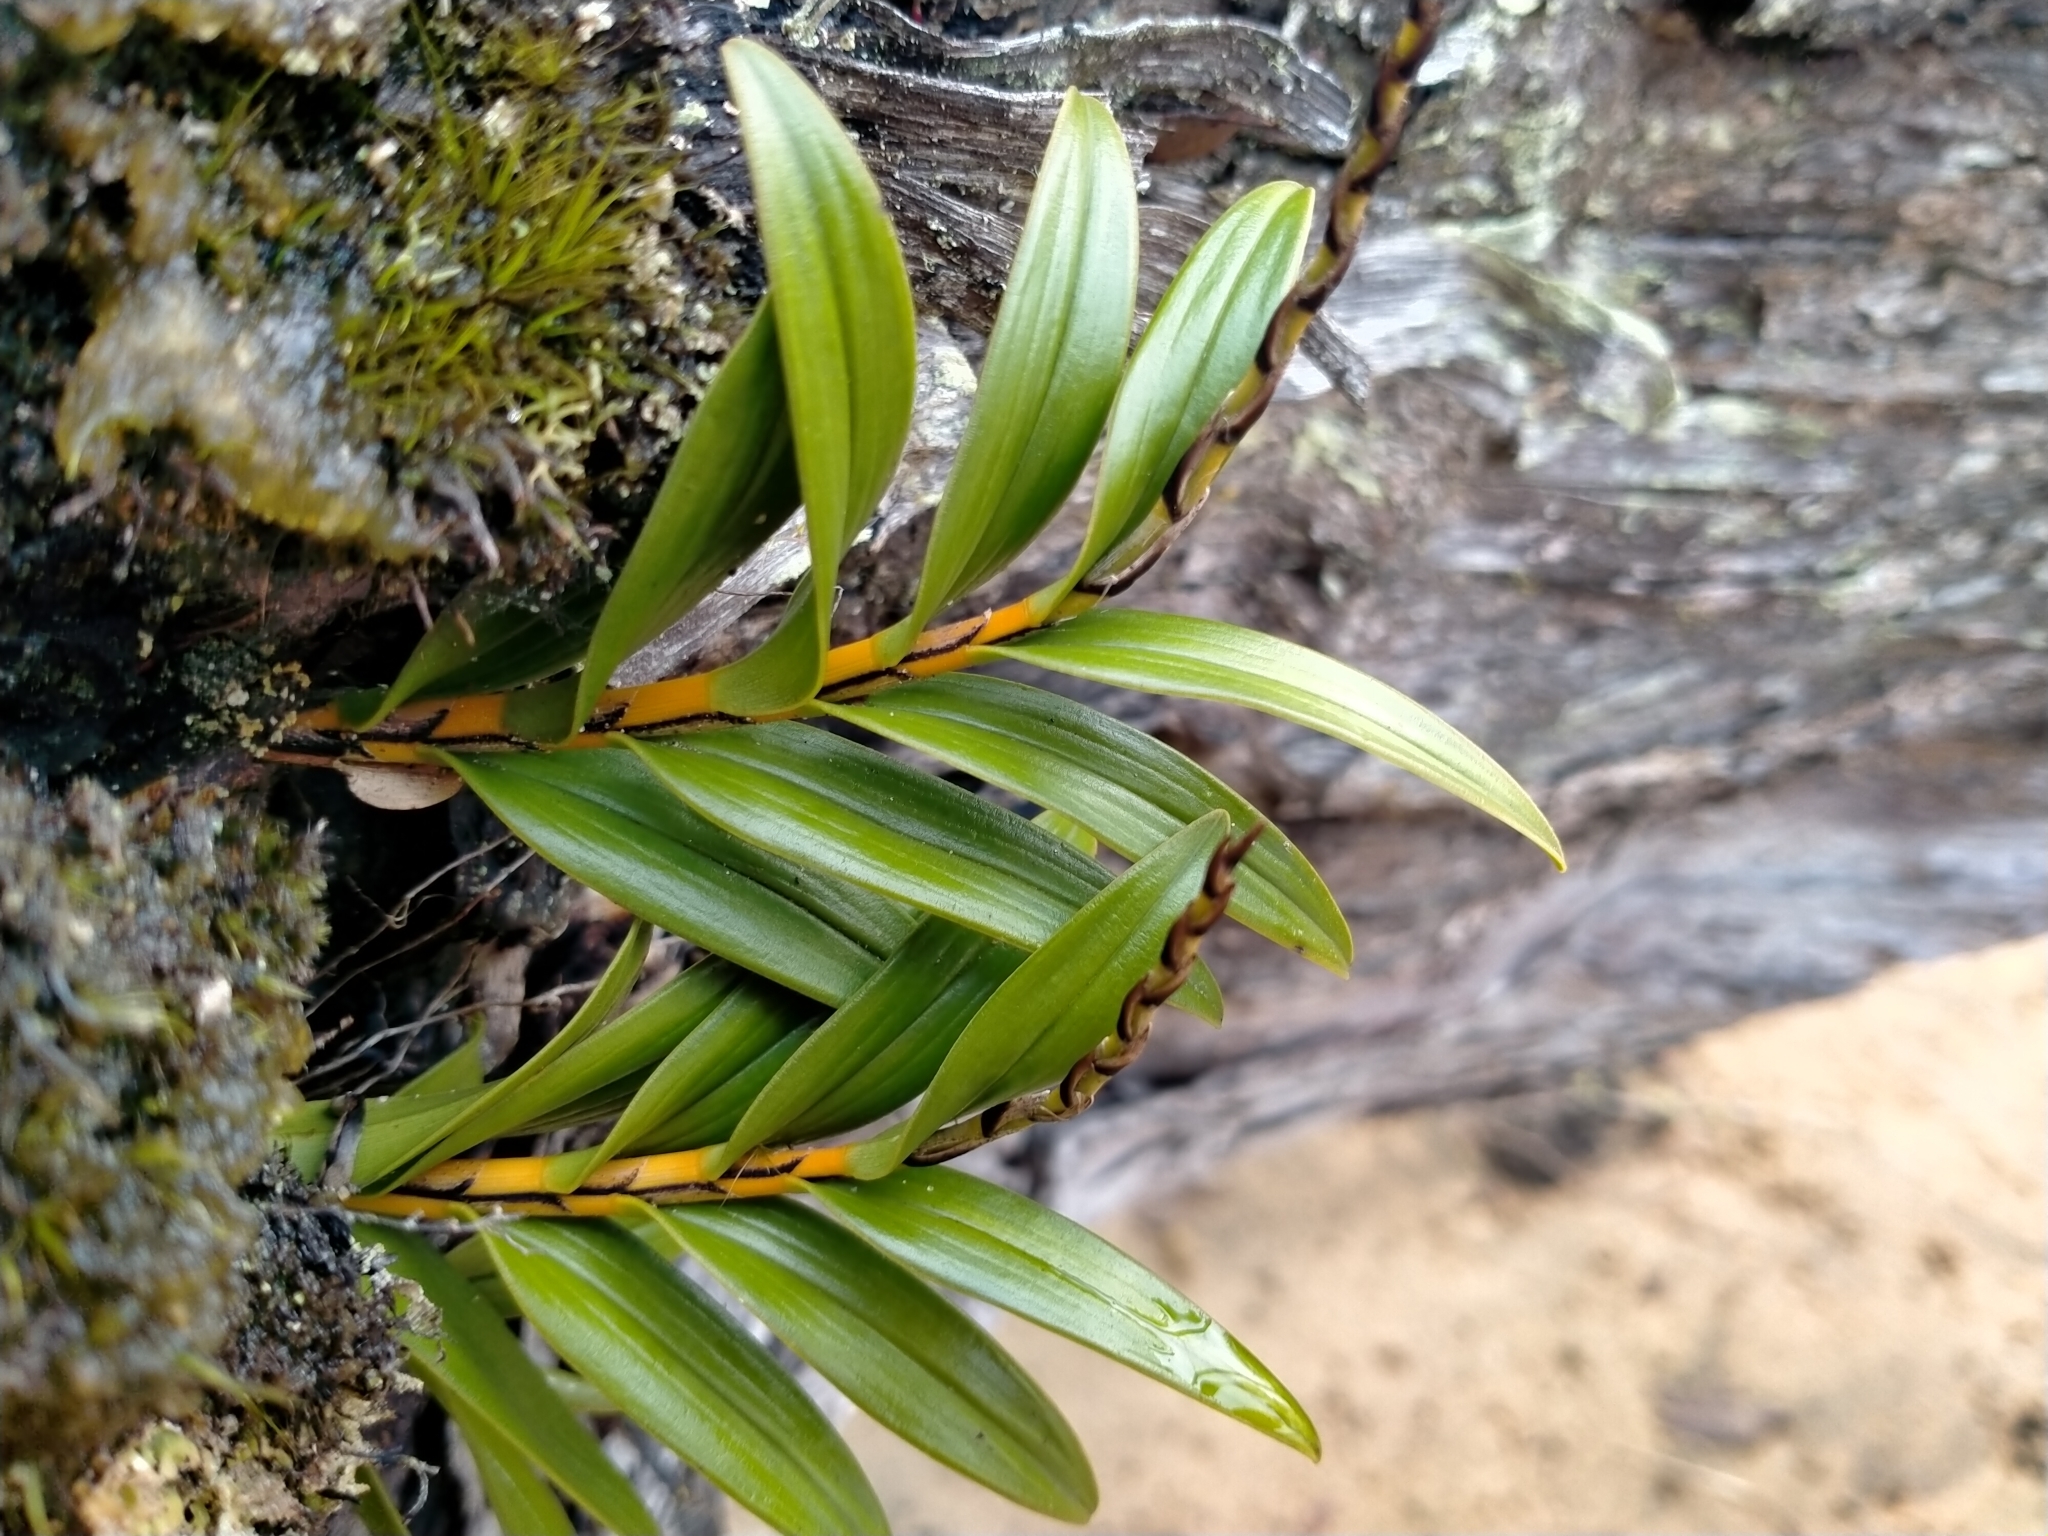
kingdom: Plantae
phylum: Tracheophyta
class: Liliopsida
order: Asparagales
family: Orchidaceae
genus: Earina
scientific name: Earina autumnalis
